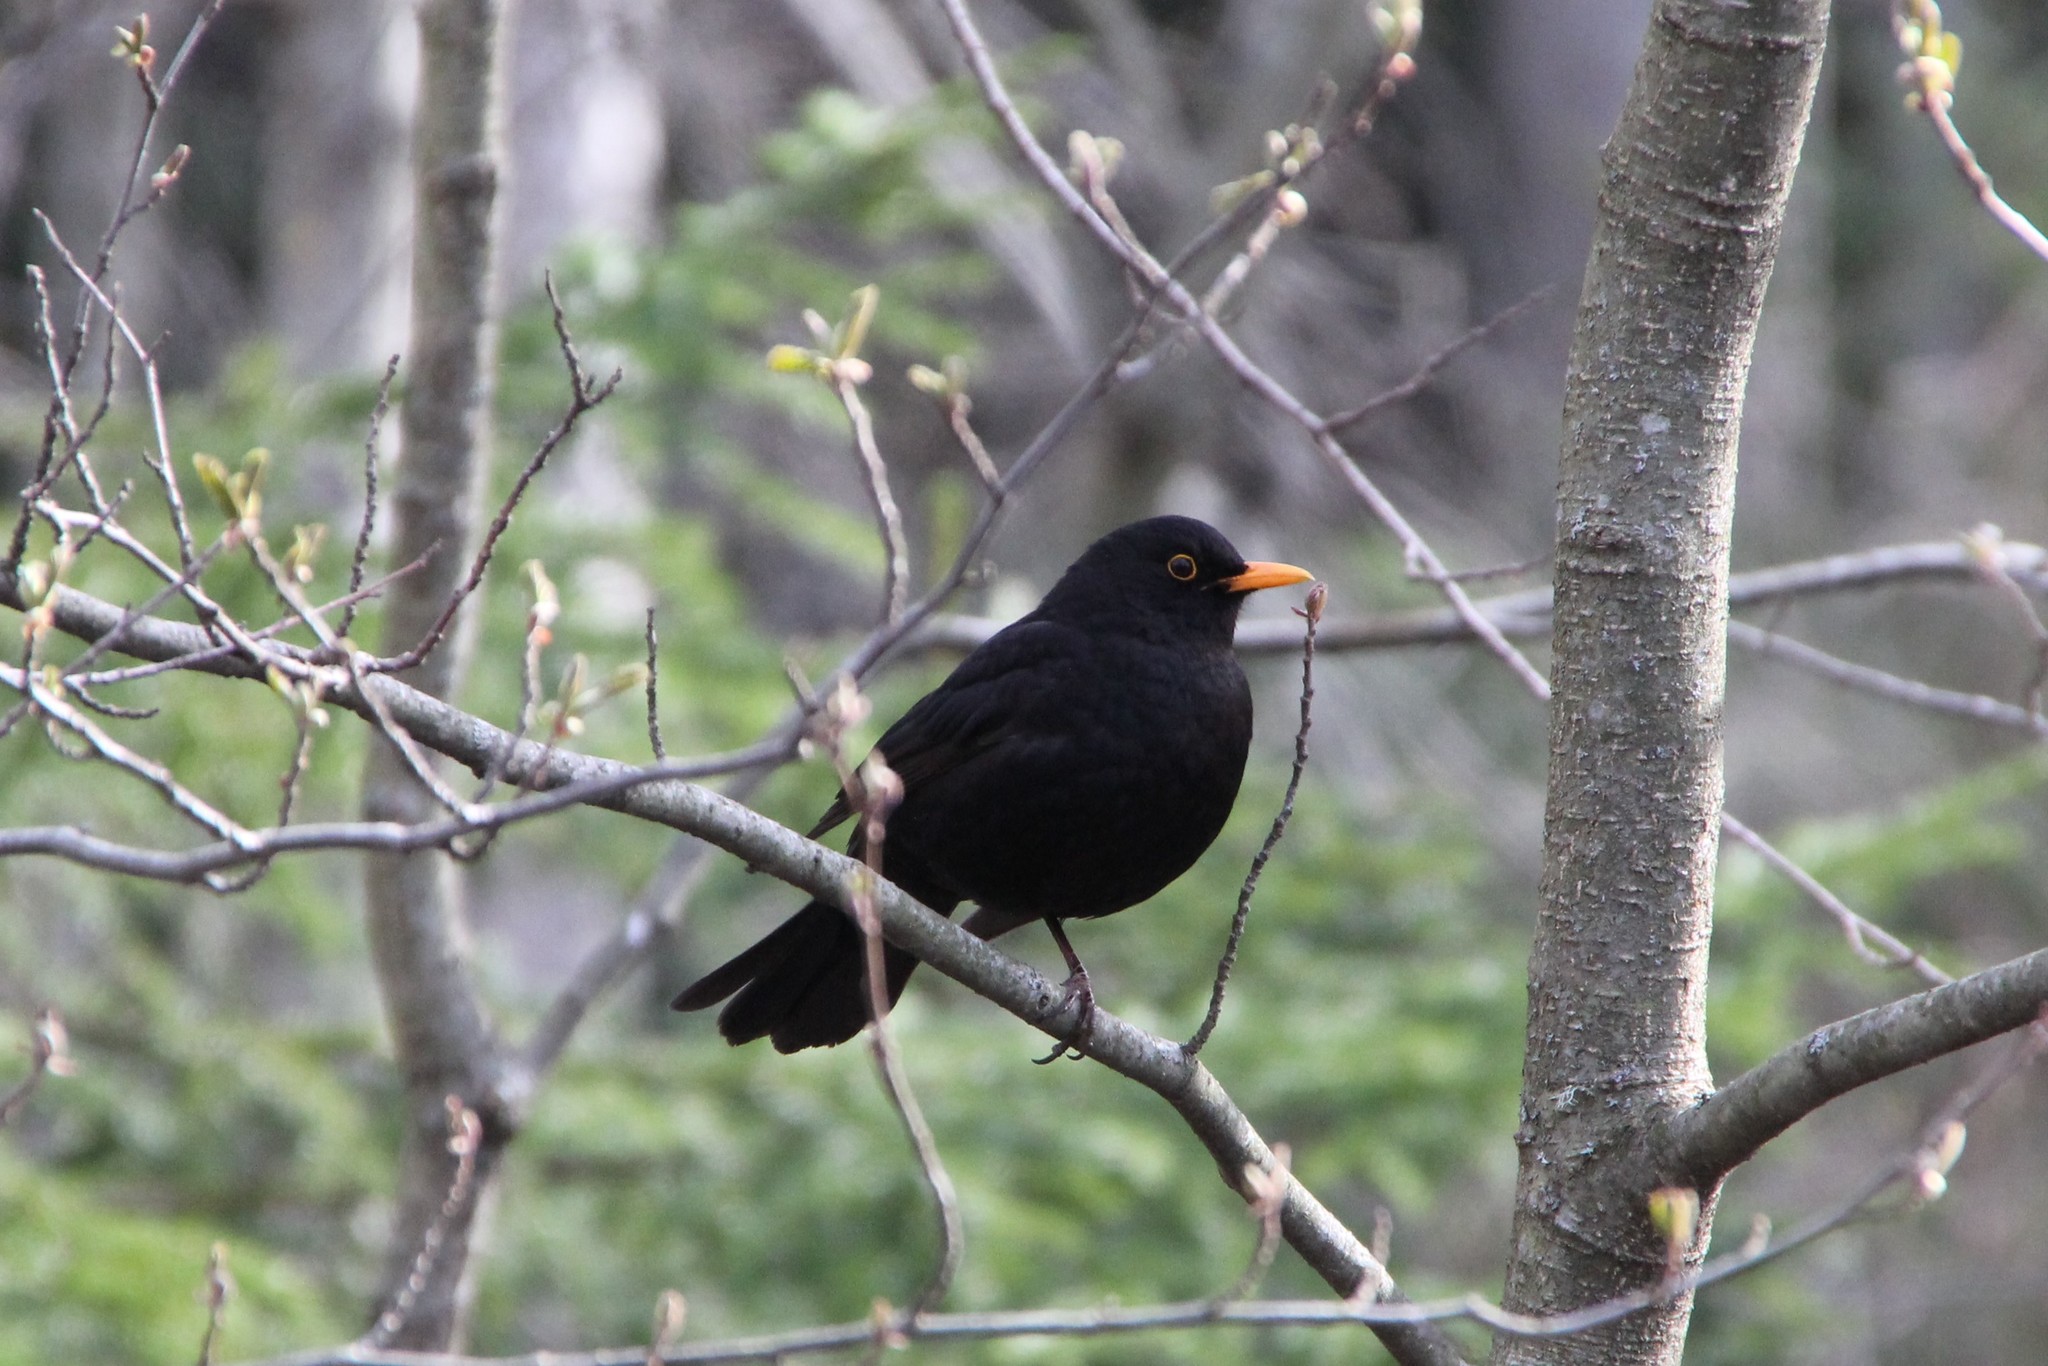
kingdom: Animalia
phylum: Chordata
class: Aves
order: Passeriformes
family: Turdidae
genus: Turdus
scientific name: Turdus merula
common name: Common blackbird
